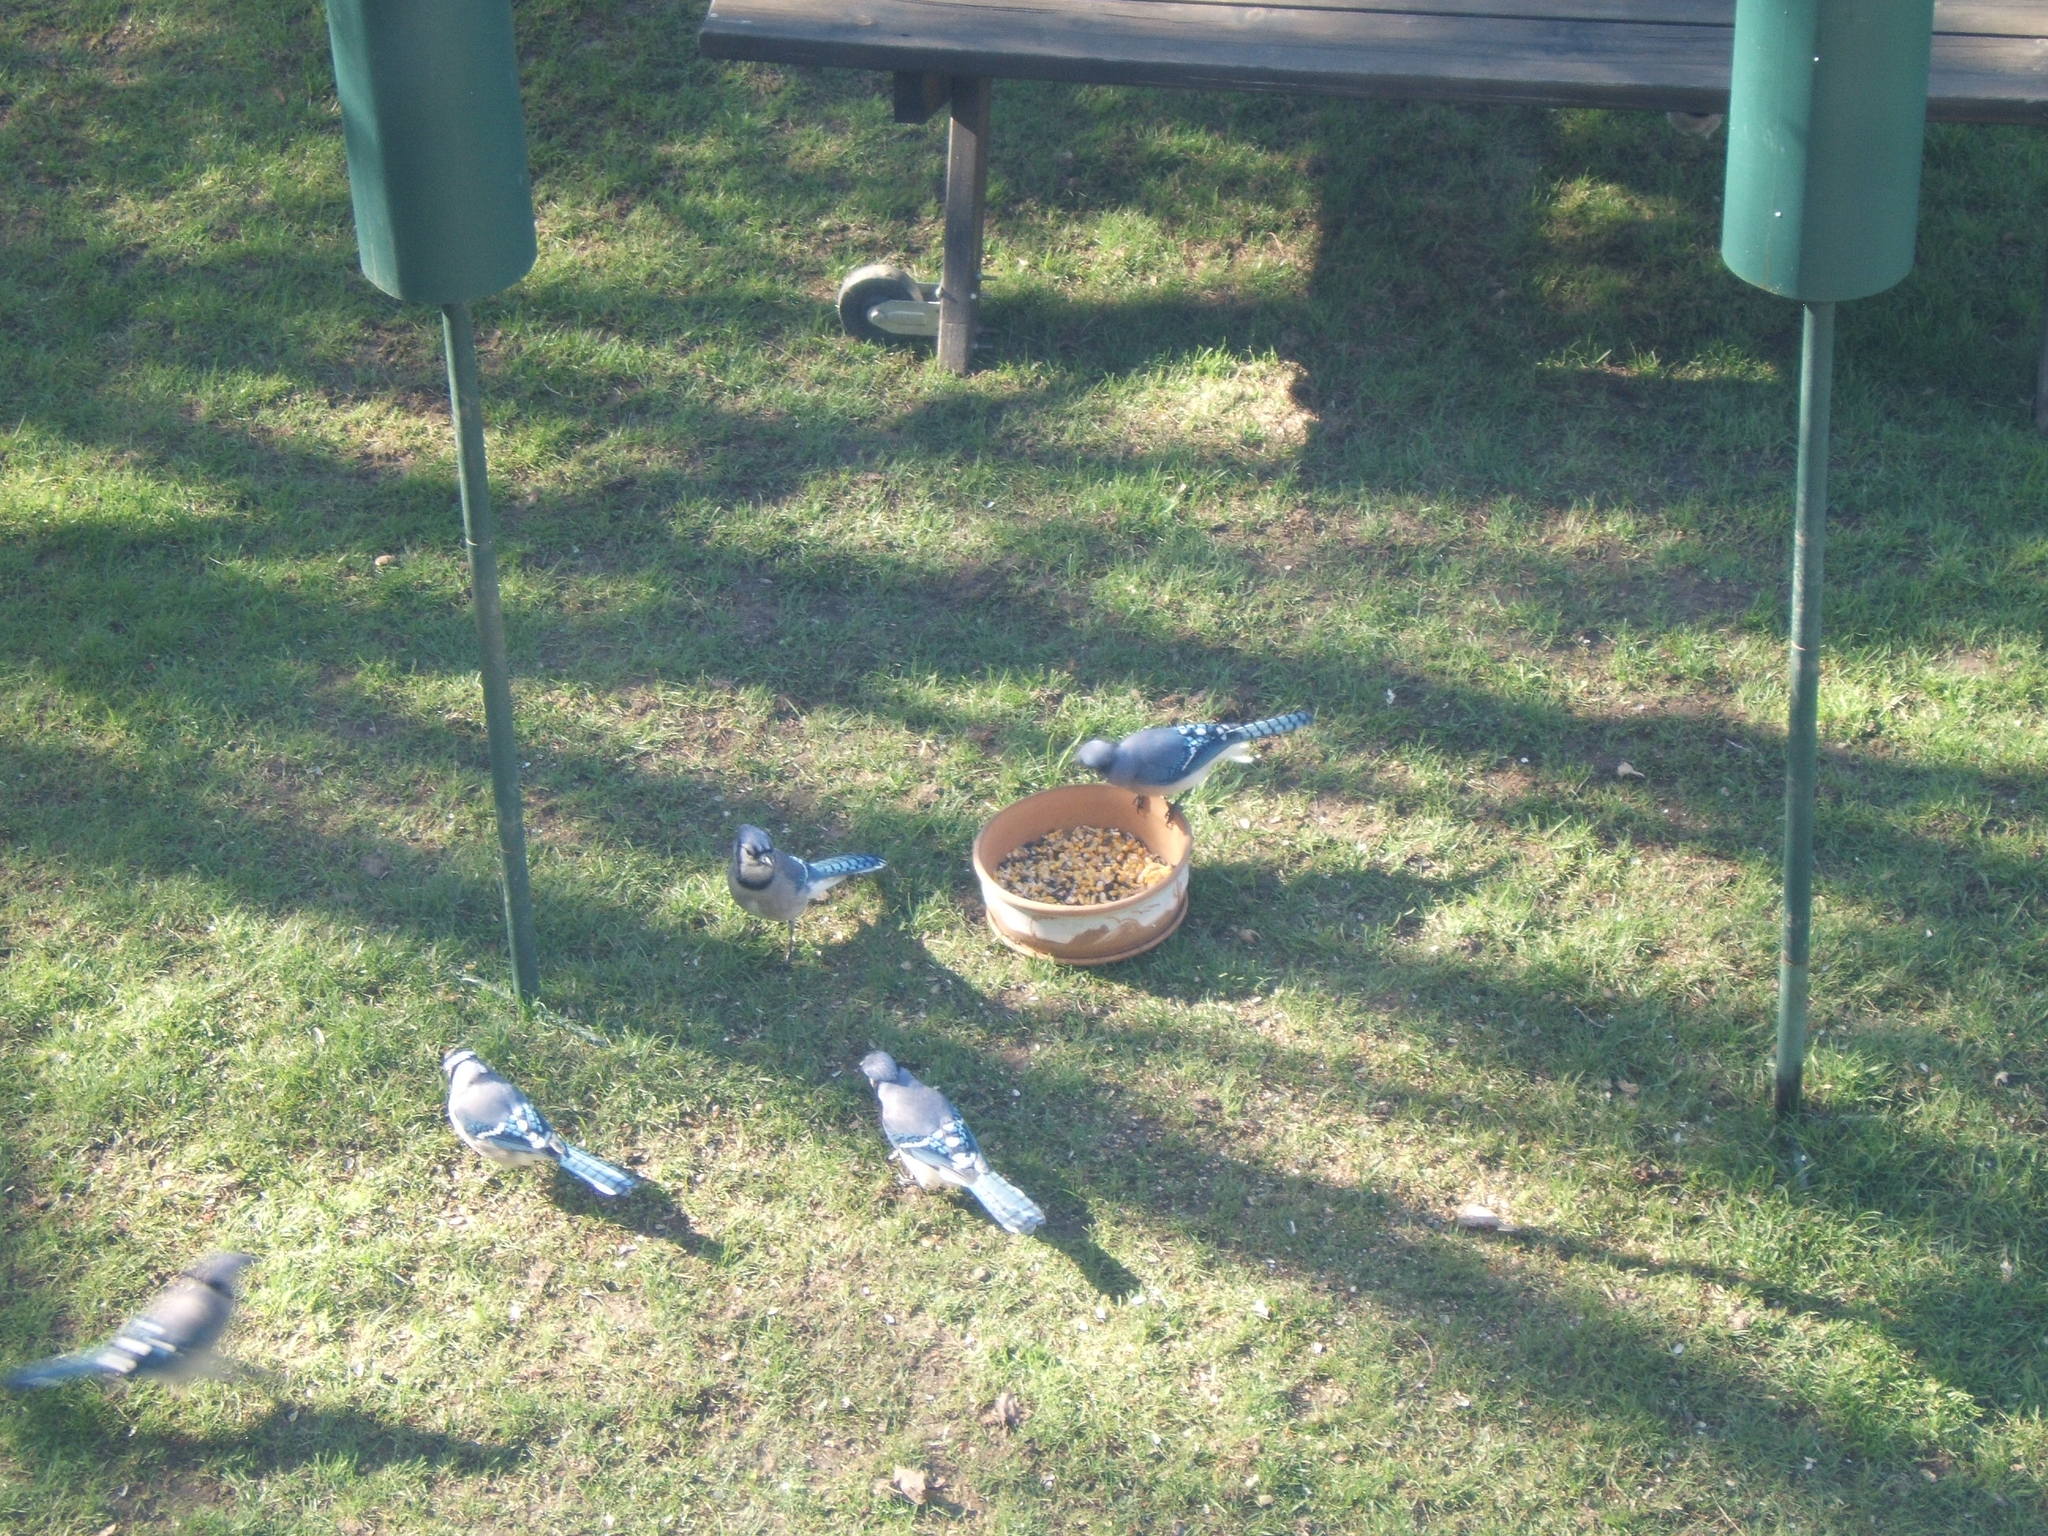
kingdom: Animalia
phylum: Chordata
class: Aves
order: Passeriformes
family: Corvidae
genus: Cyanocitta
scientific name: Cyanocitta cristata
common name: Blue jay
